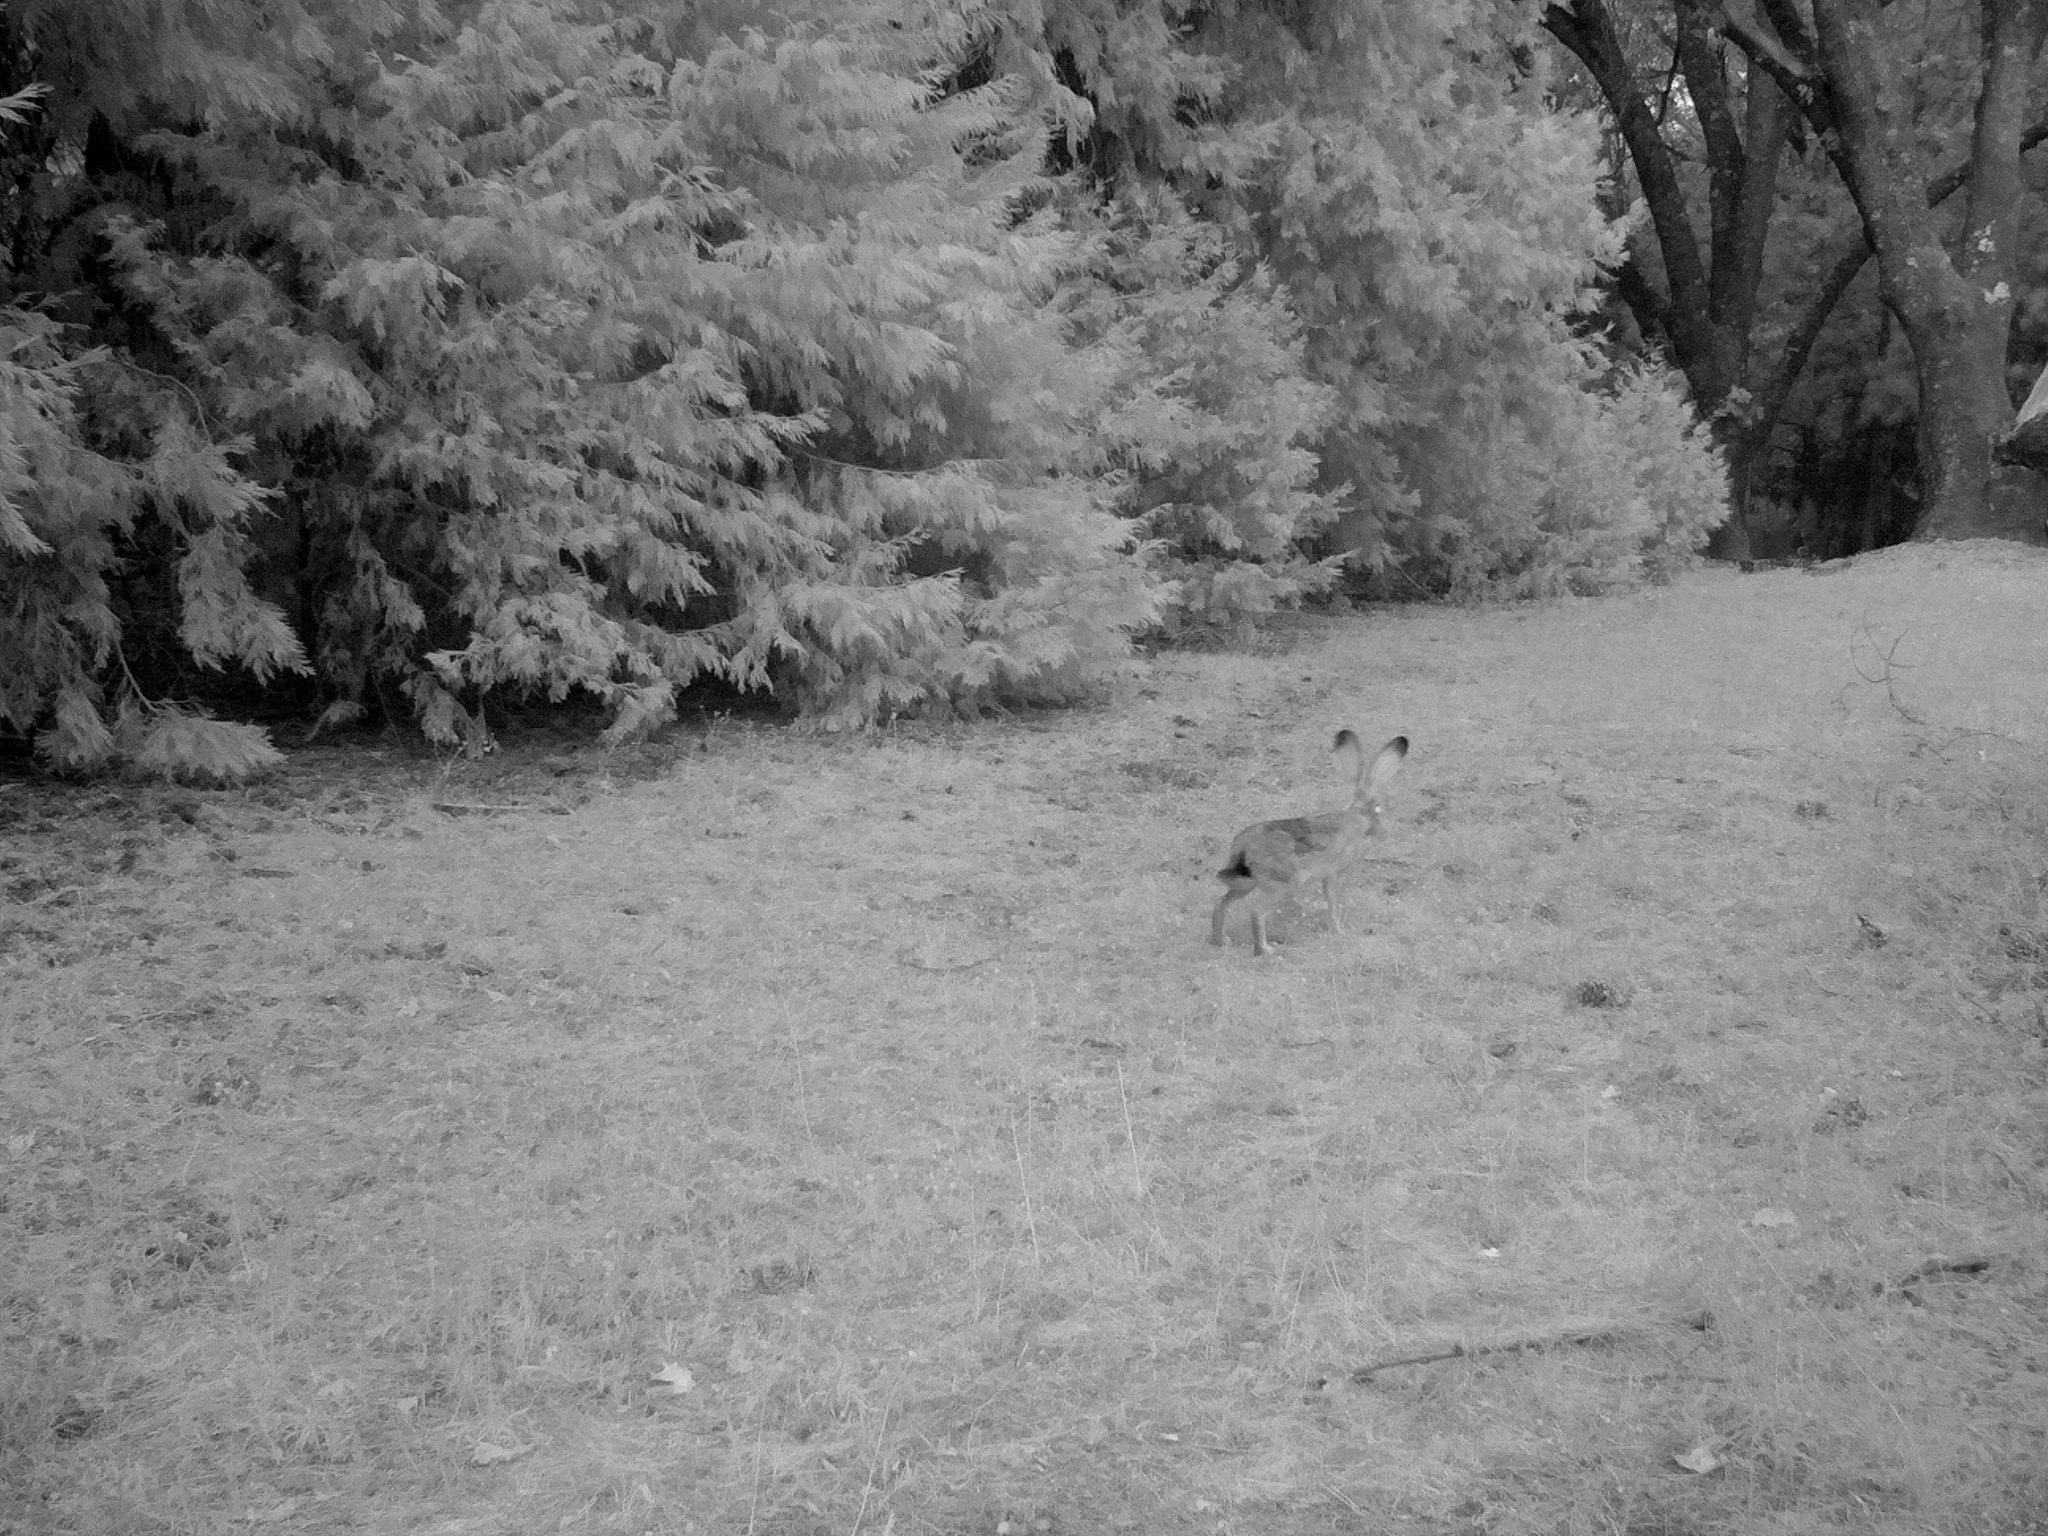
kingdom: Animalia
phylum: Chordata
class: Mammalia
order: Lagomorpha
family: Leporidae
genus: Lepus
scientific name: Lepus californicus
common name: Black-tailed jackrabbit
